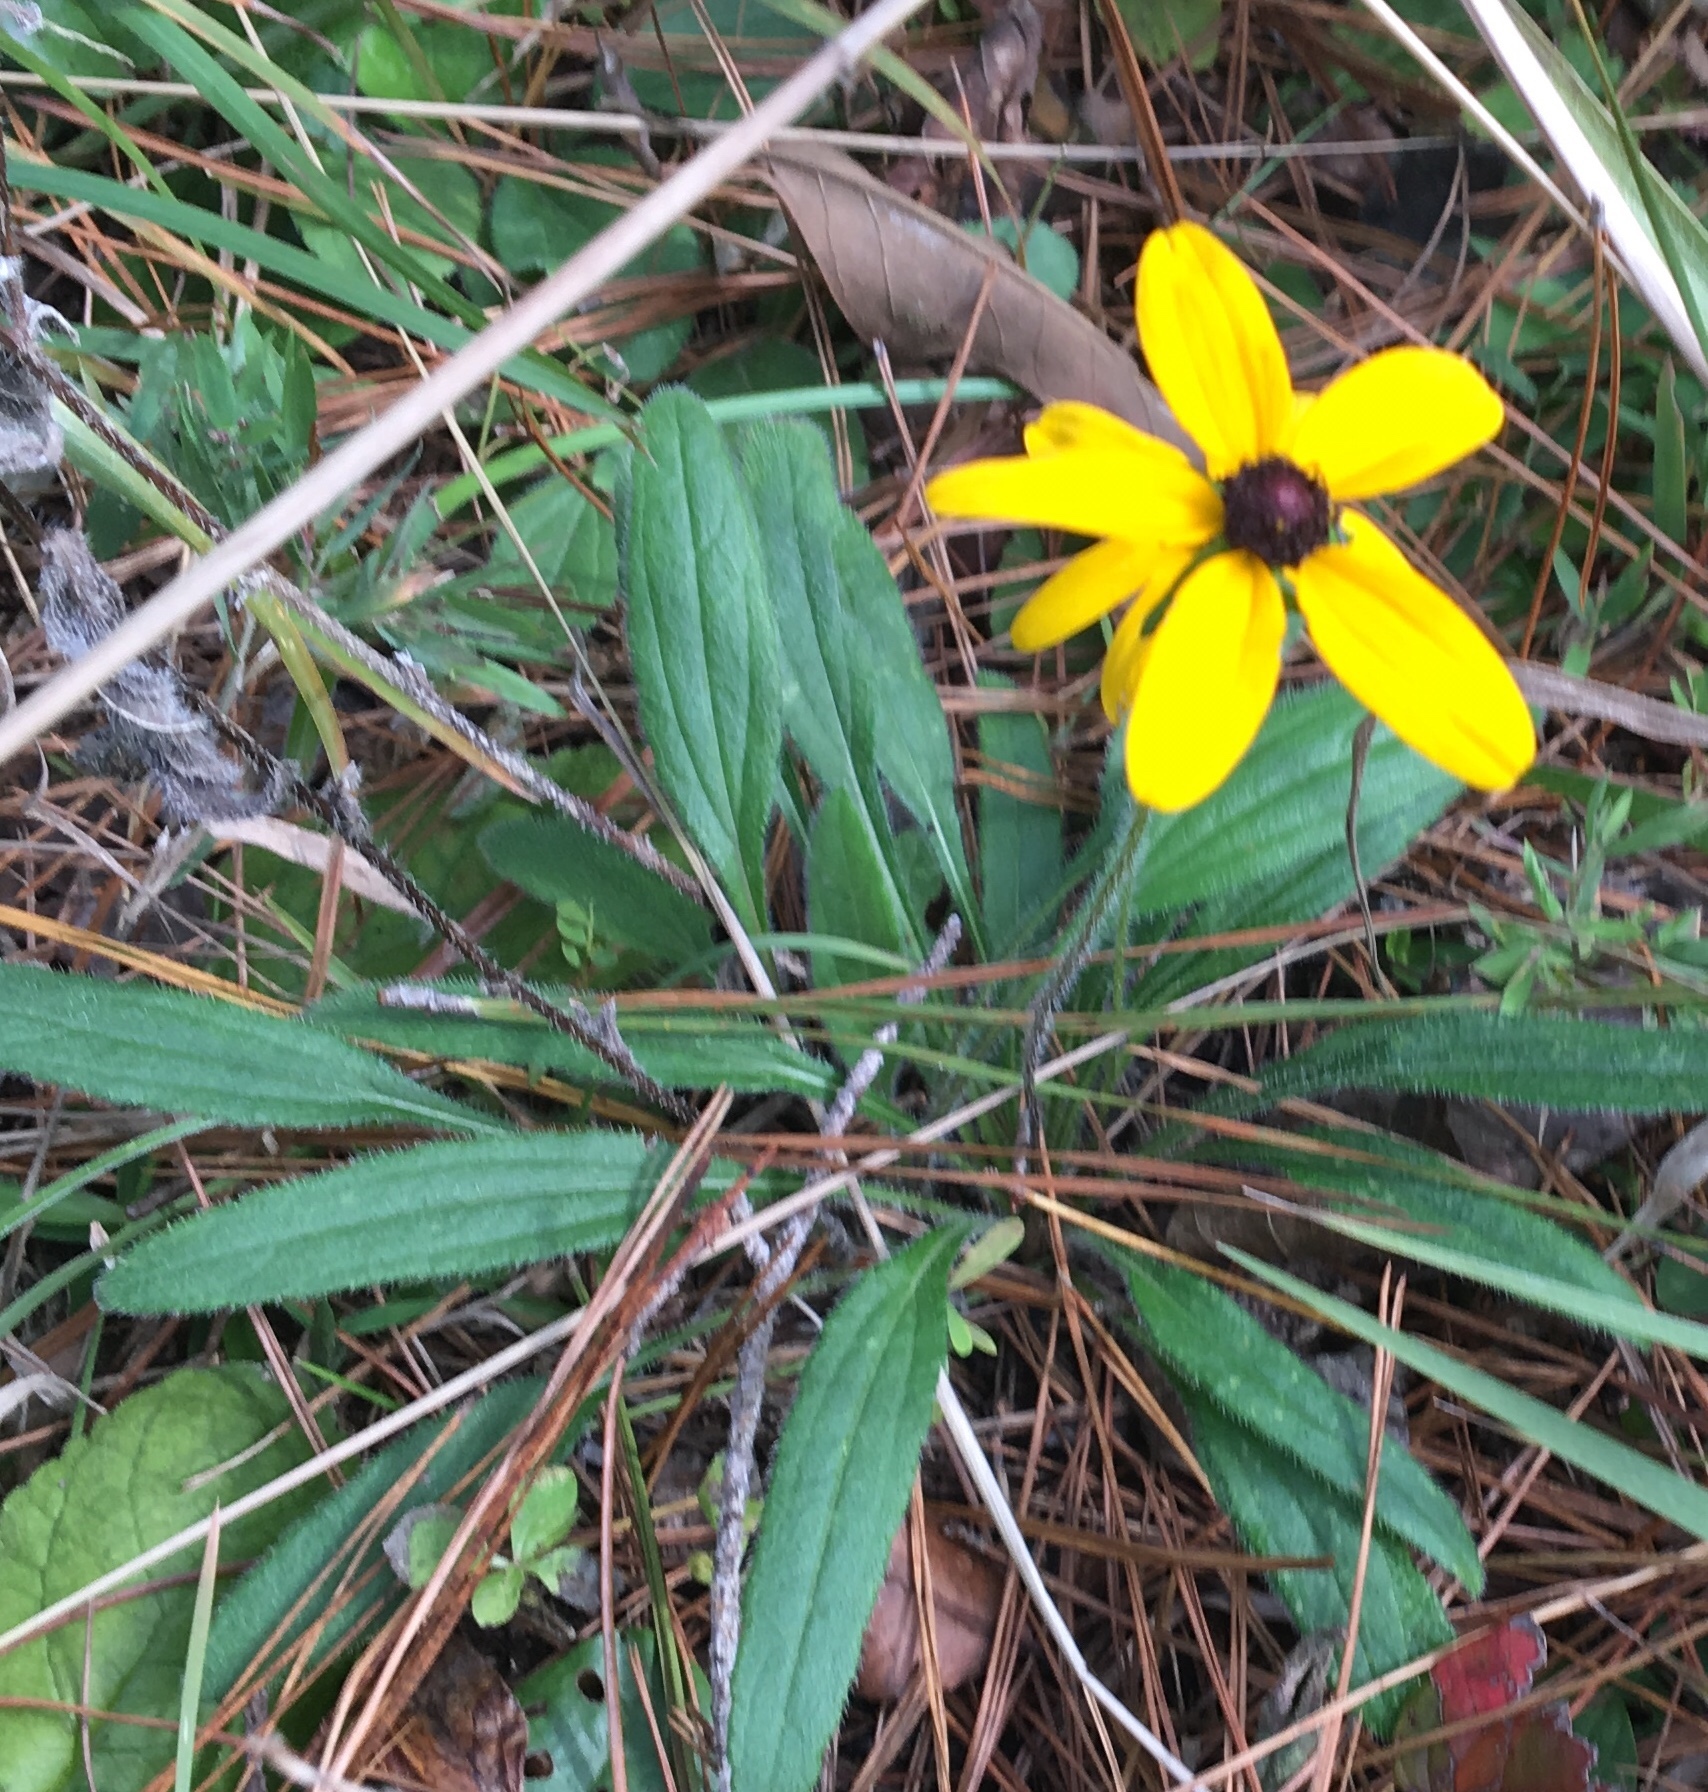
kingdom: Plantae
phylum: Tracheophyta
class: Magnoliopsida
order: Asterales
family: Asteraceae
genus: Rudbeckia
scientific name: Rudbeckia hirta
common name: Black-eyed-susan
